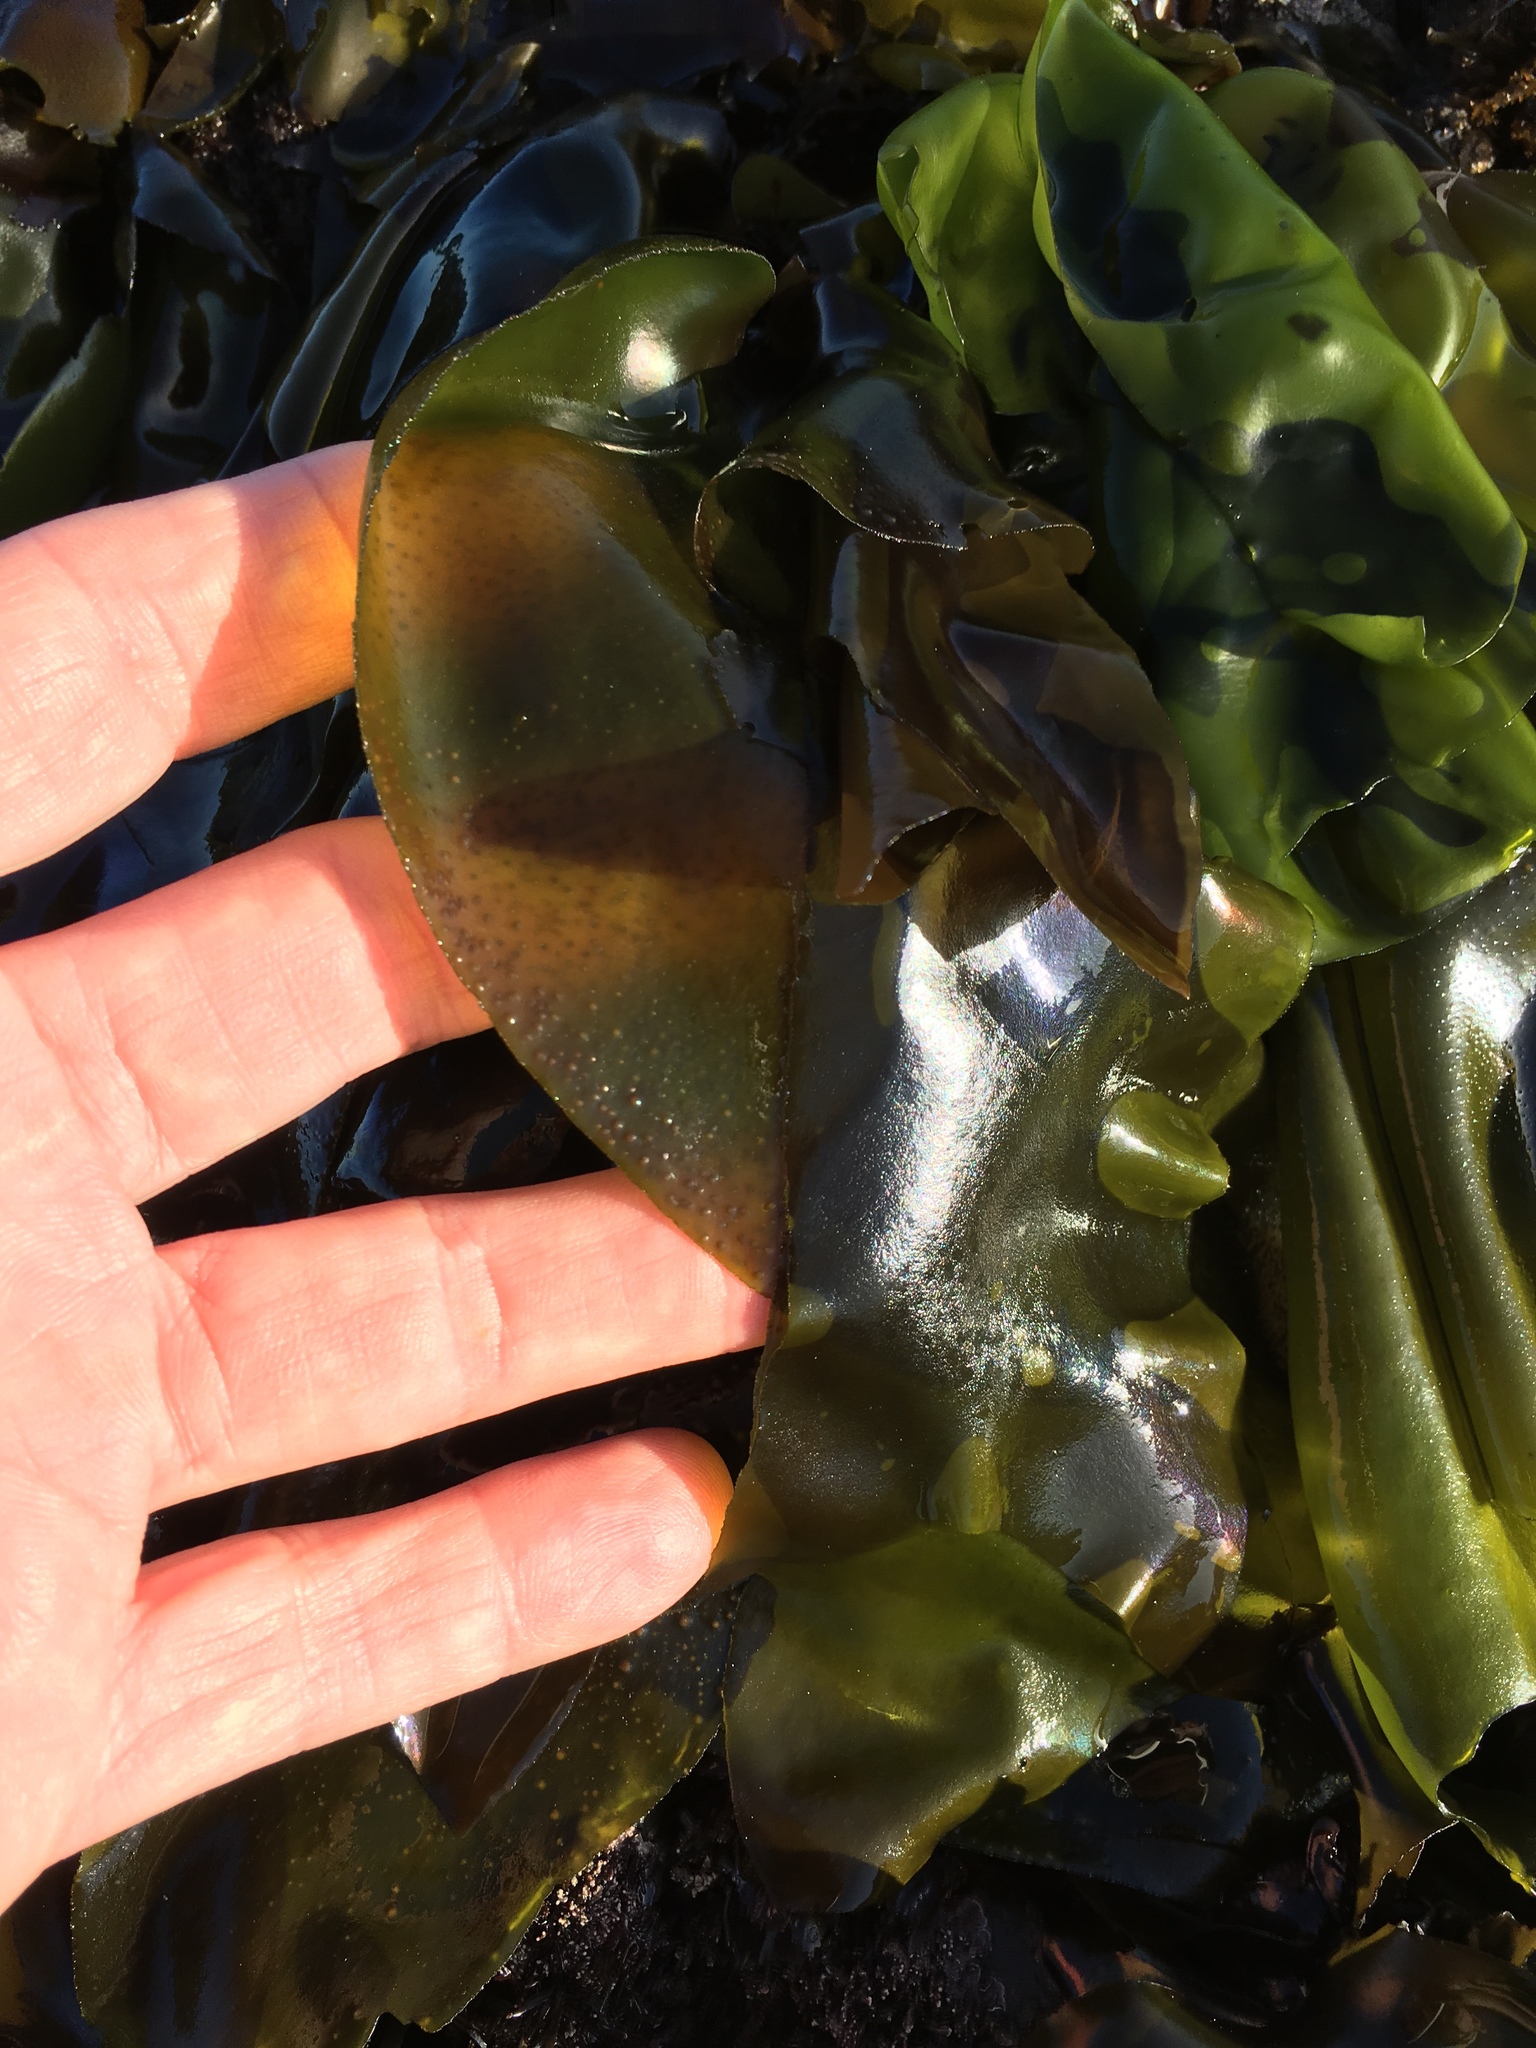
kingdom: Plantae
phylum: Rhodophyta
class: Florideophyceae
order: Gigartinales
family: Gigartinaceae
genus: Mazzaella
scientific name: Mazzaella flaccida
